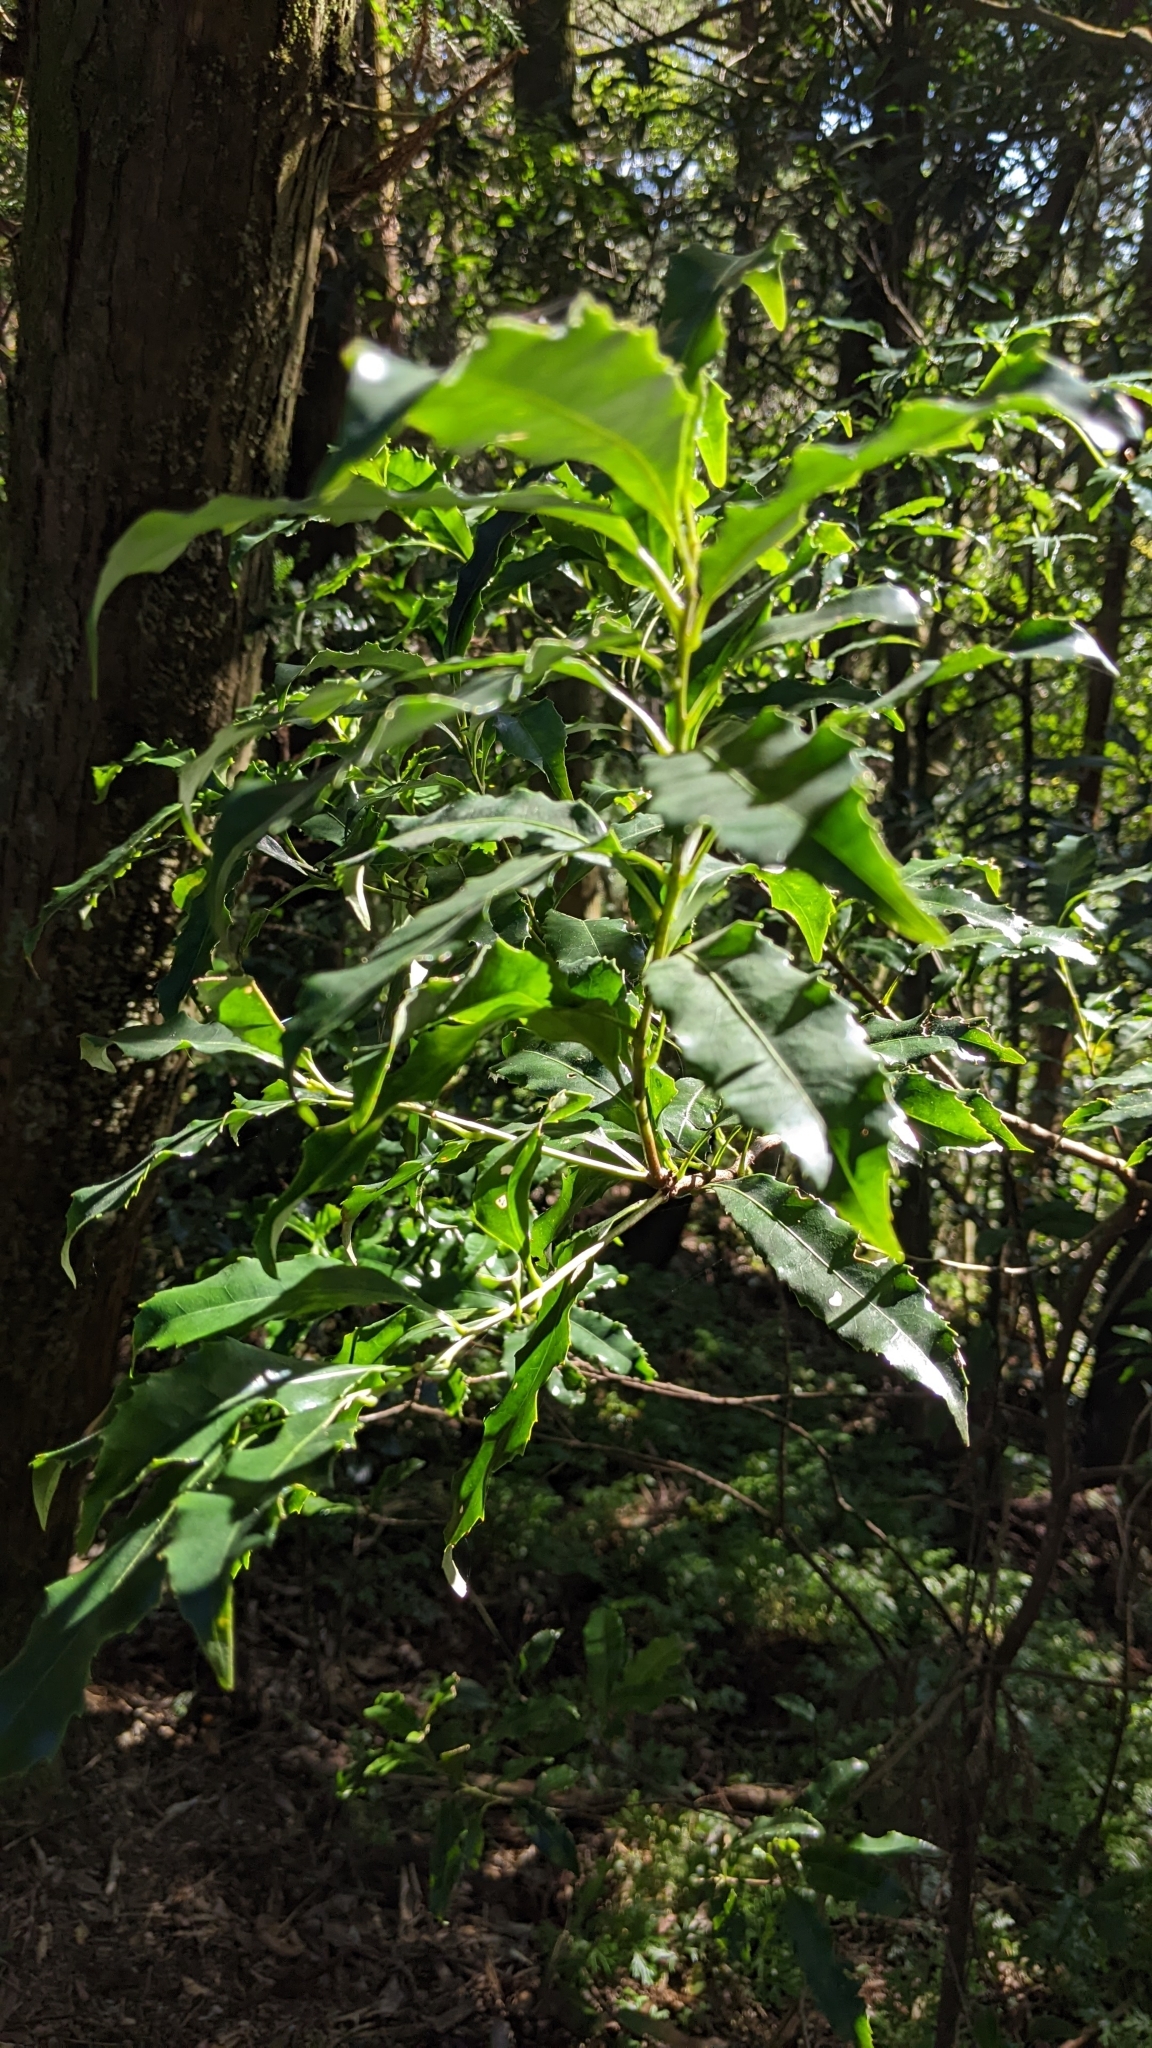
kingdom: Plantae
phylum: Tracheophyta
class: Magnoliopsida
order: Proteales
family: Proteaceae
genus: Helicia
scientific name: Helicia cochinchinensis
